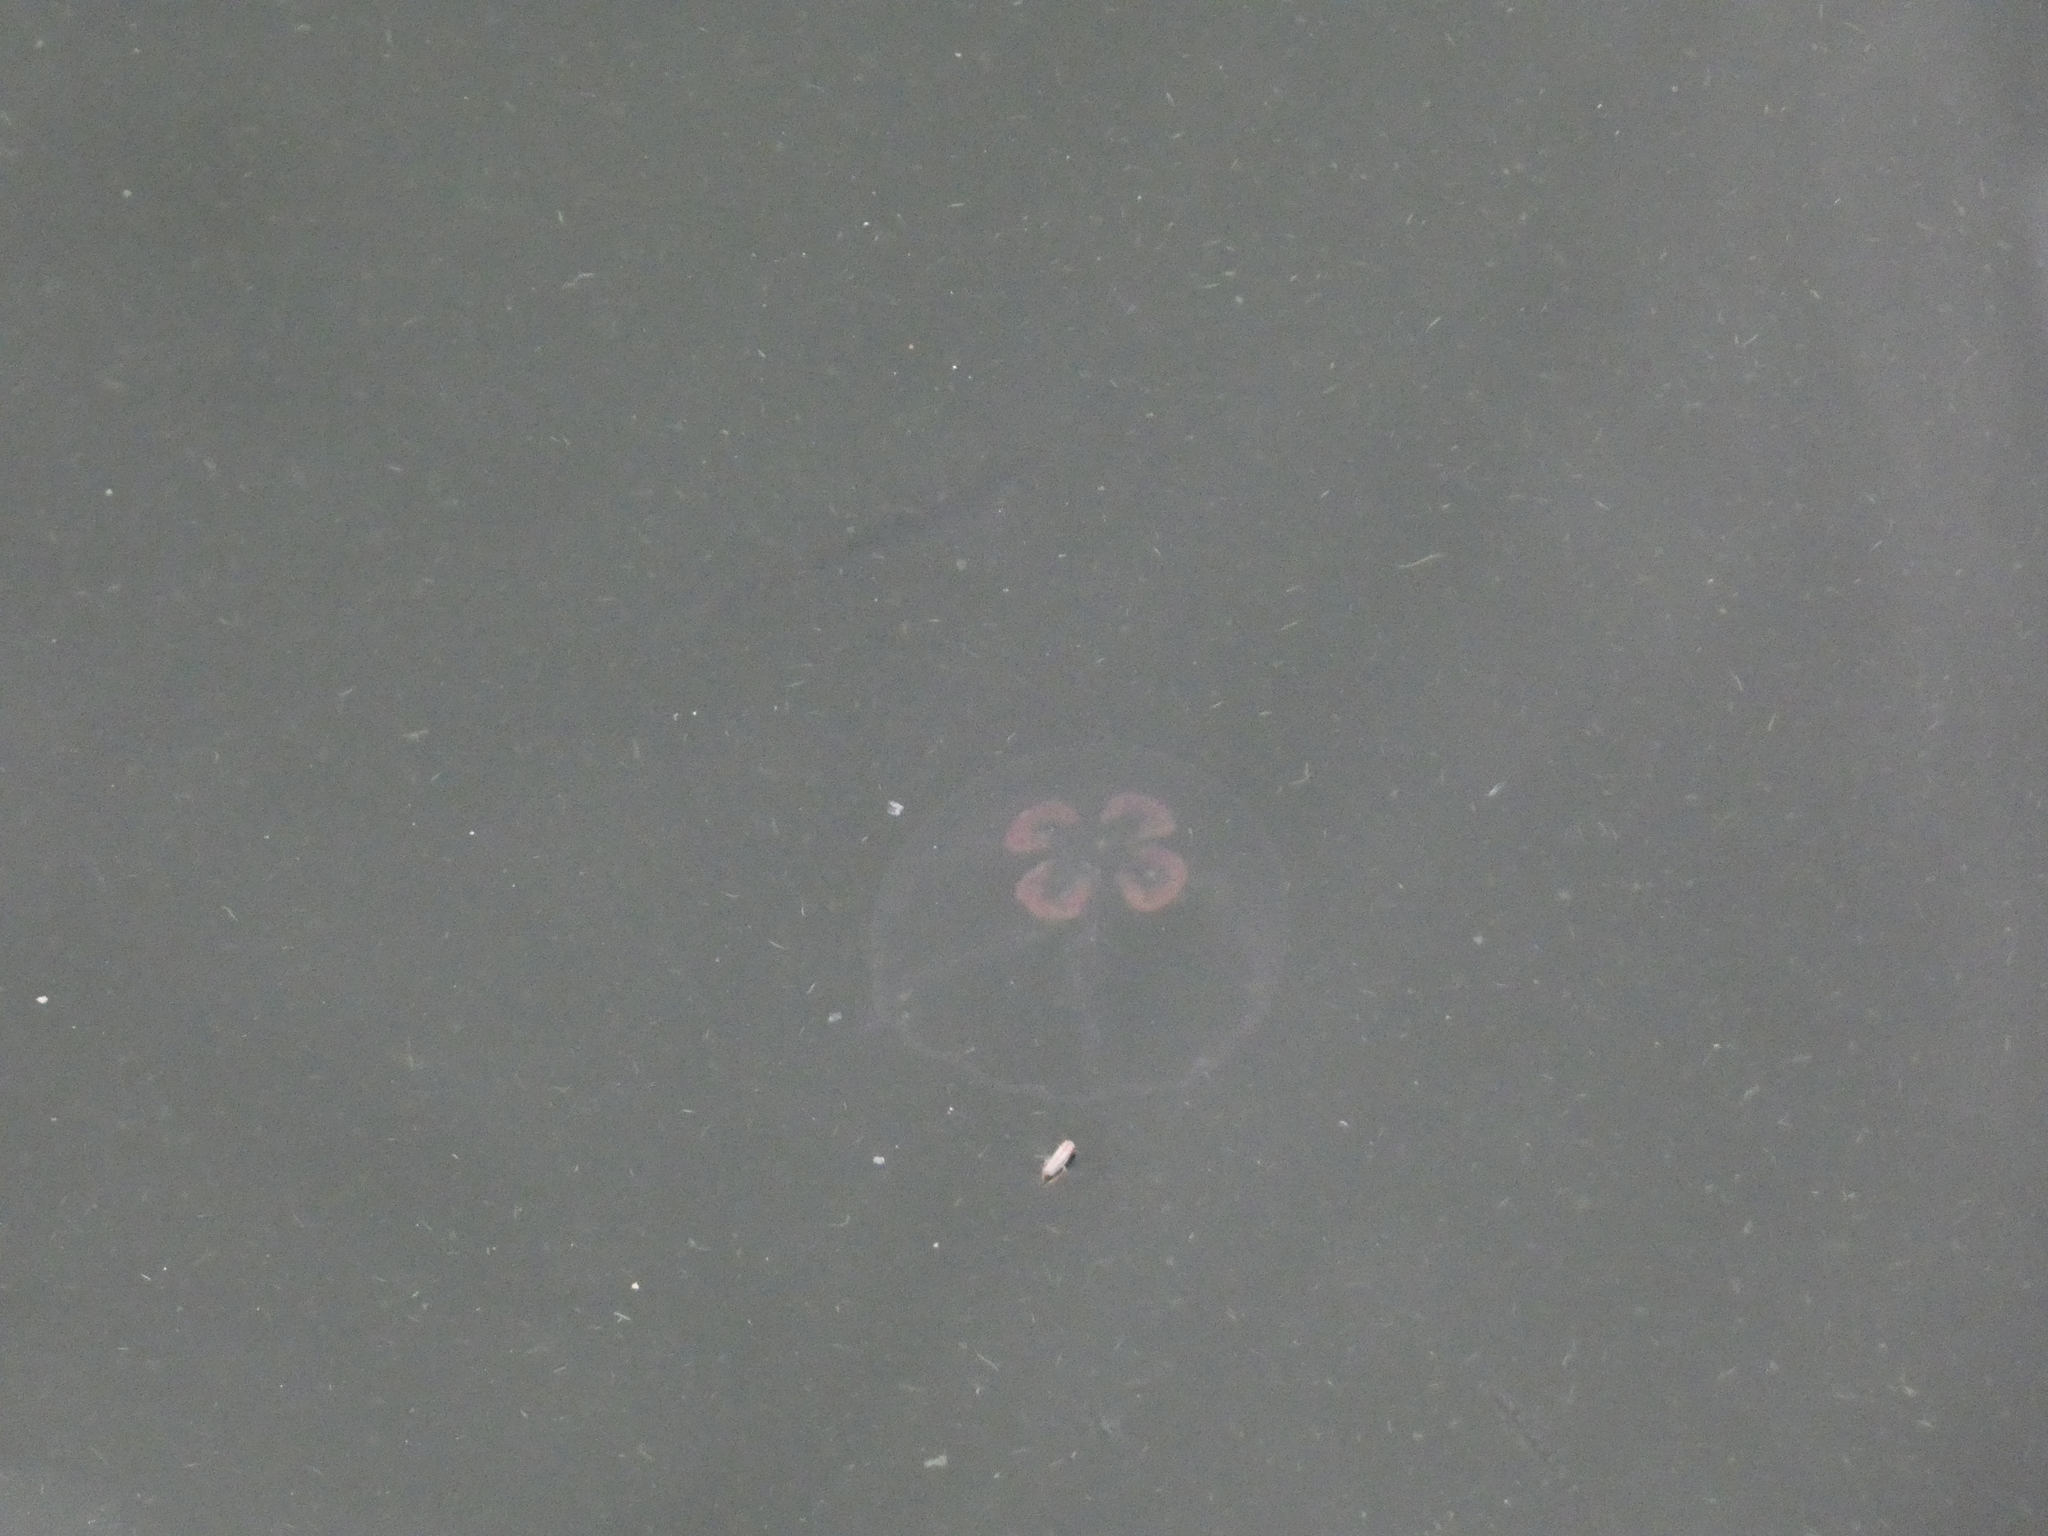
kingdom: Animalia
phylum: Cnidaria
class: Scyphozoa
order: Semaeostomeae
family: Ulmaridae
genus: Aurelia
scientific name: Aurelia aurita
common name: Moon jellyfish
